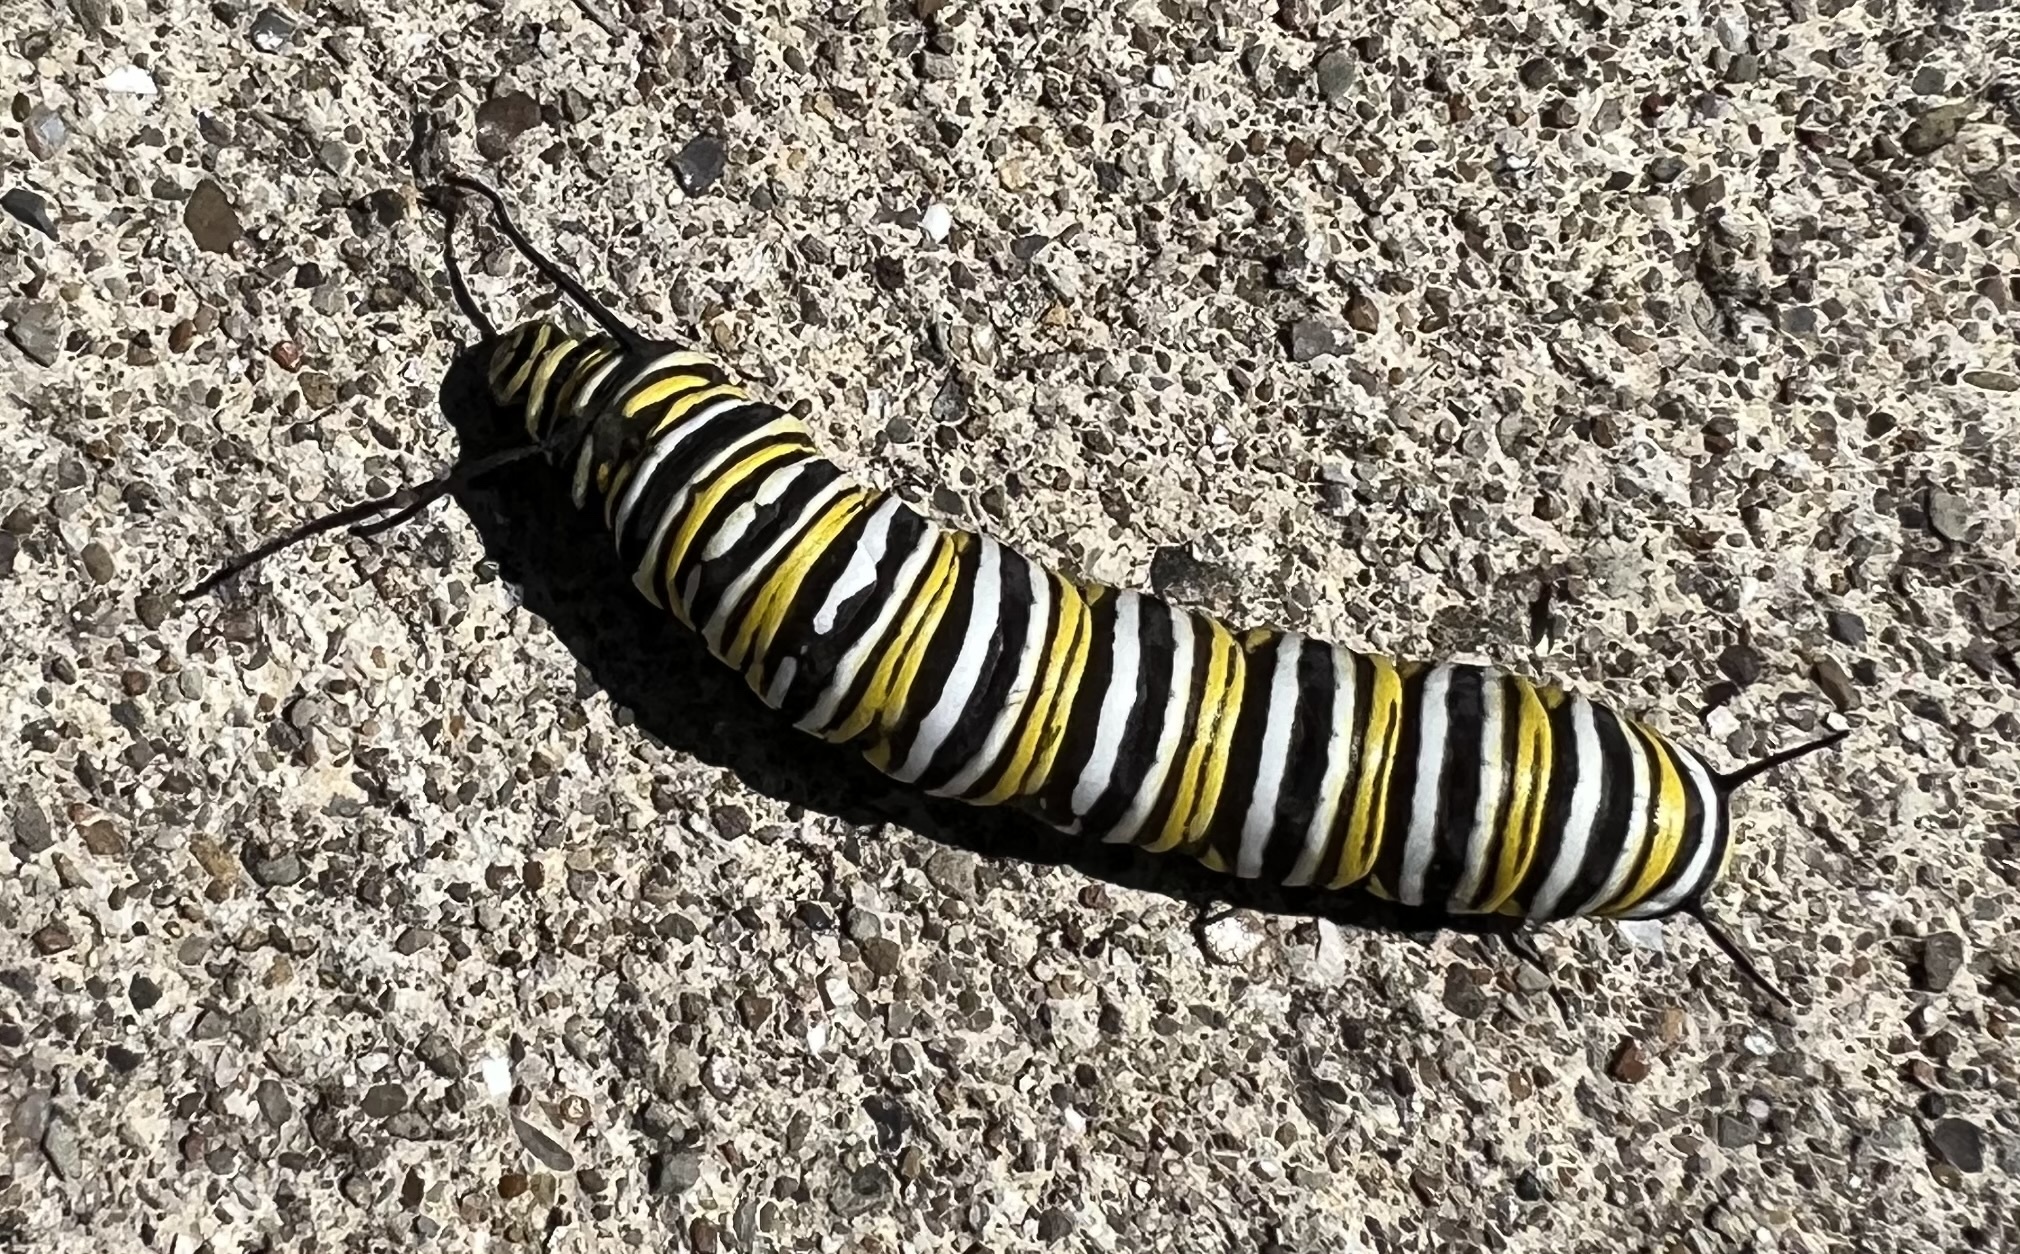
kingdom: Animalia
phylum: Arthropoda
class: Insecta
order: Lepidoptera
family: Nymphalidae
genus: Danaus
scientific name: Danaus plexippus
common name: Monarch
